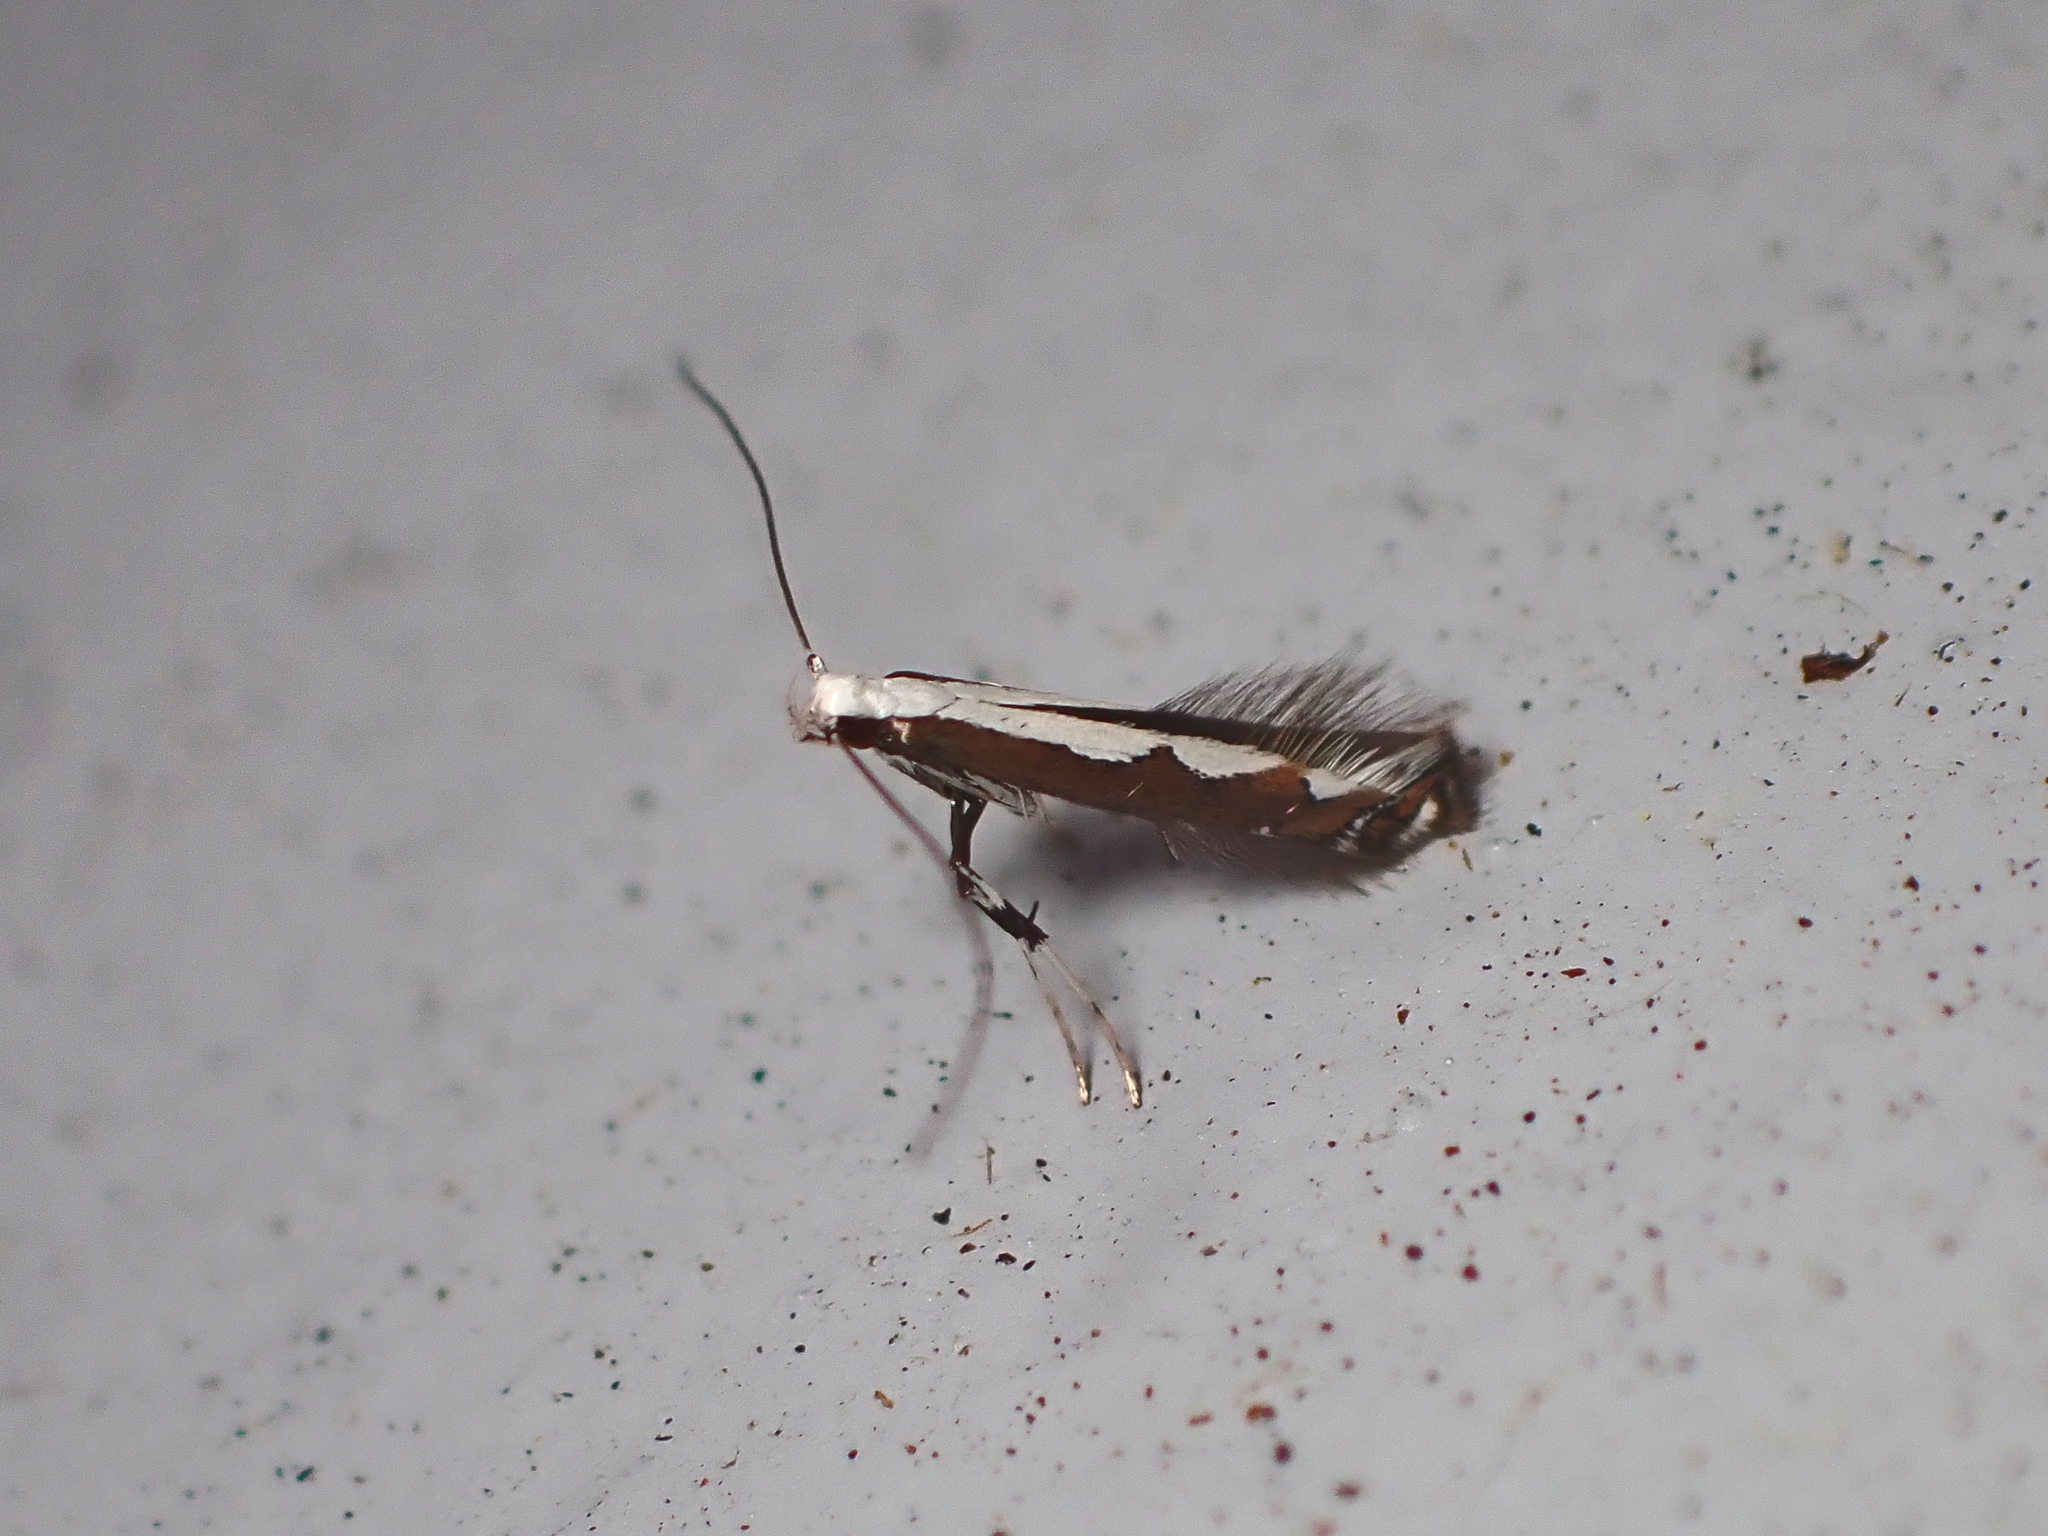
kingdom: Animalia
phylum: Arthropoda
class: Insecta
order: Lepidoptera
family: Gracillariidae
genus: Dialectica
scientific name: Dialectica scalariella
